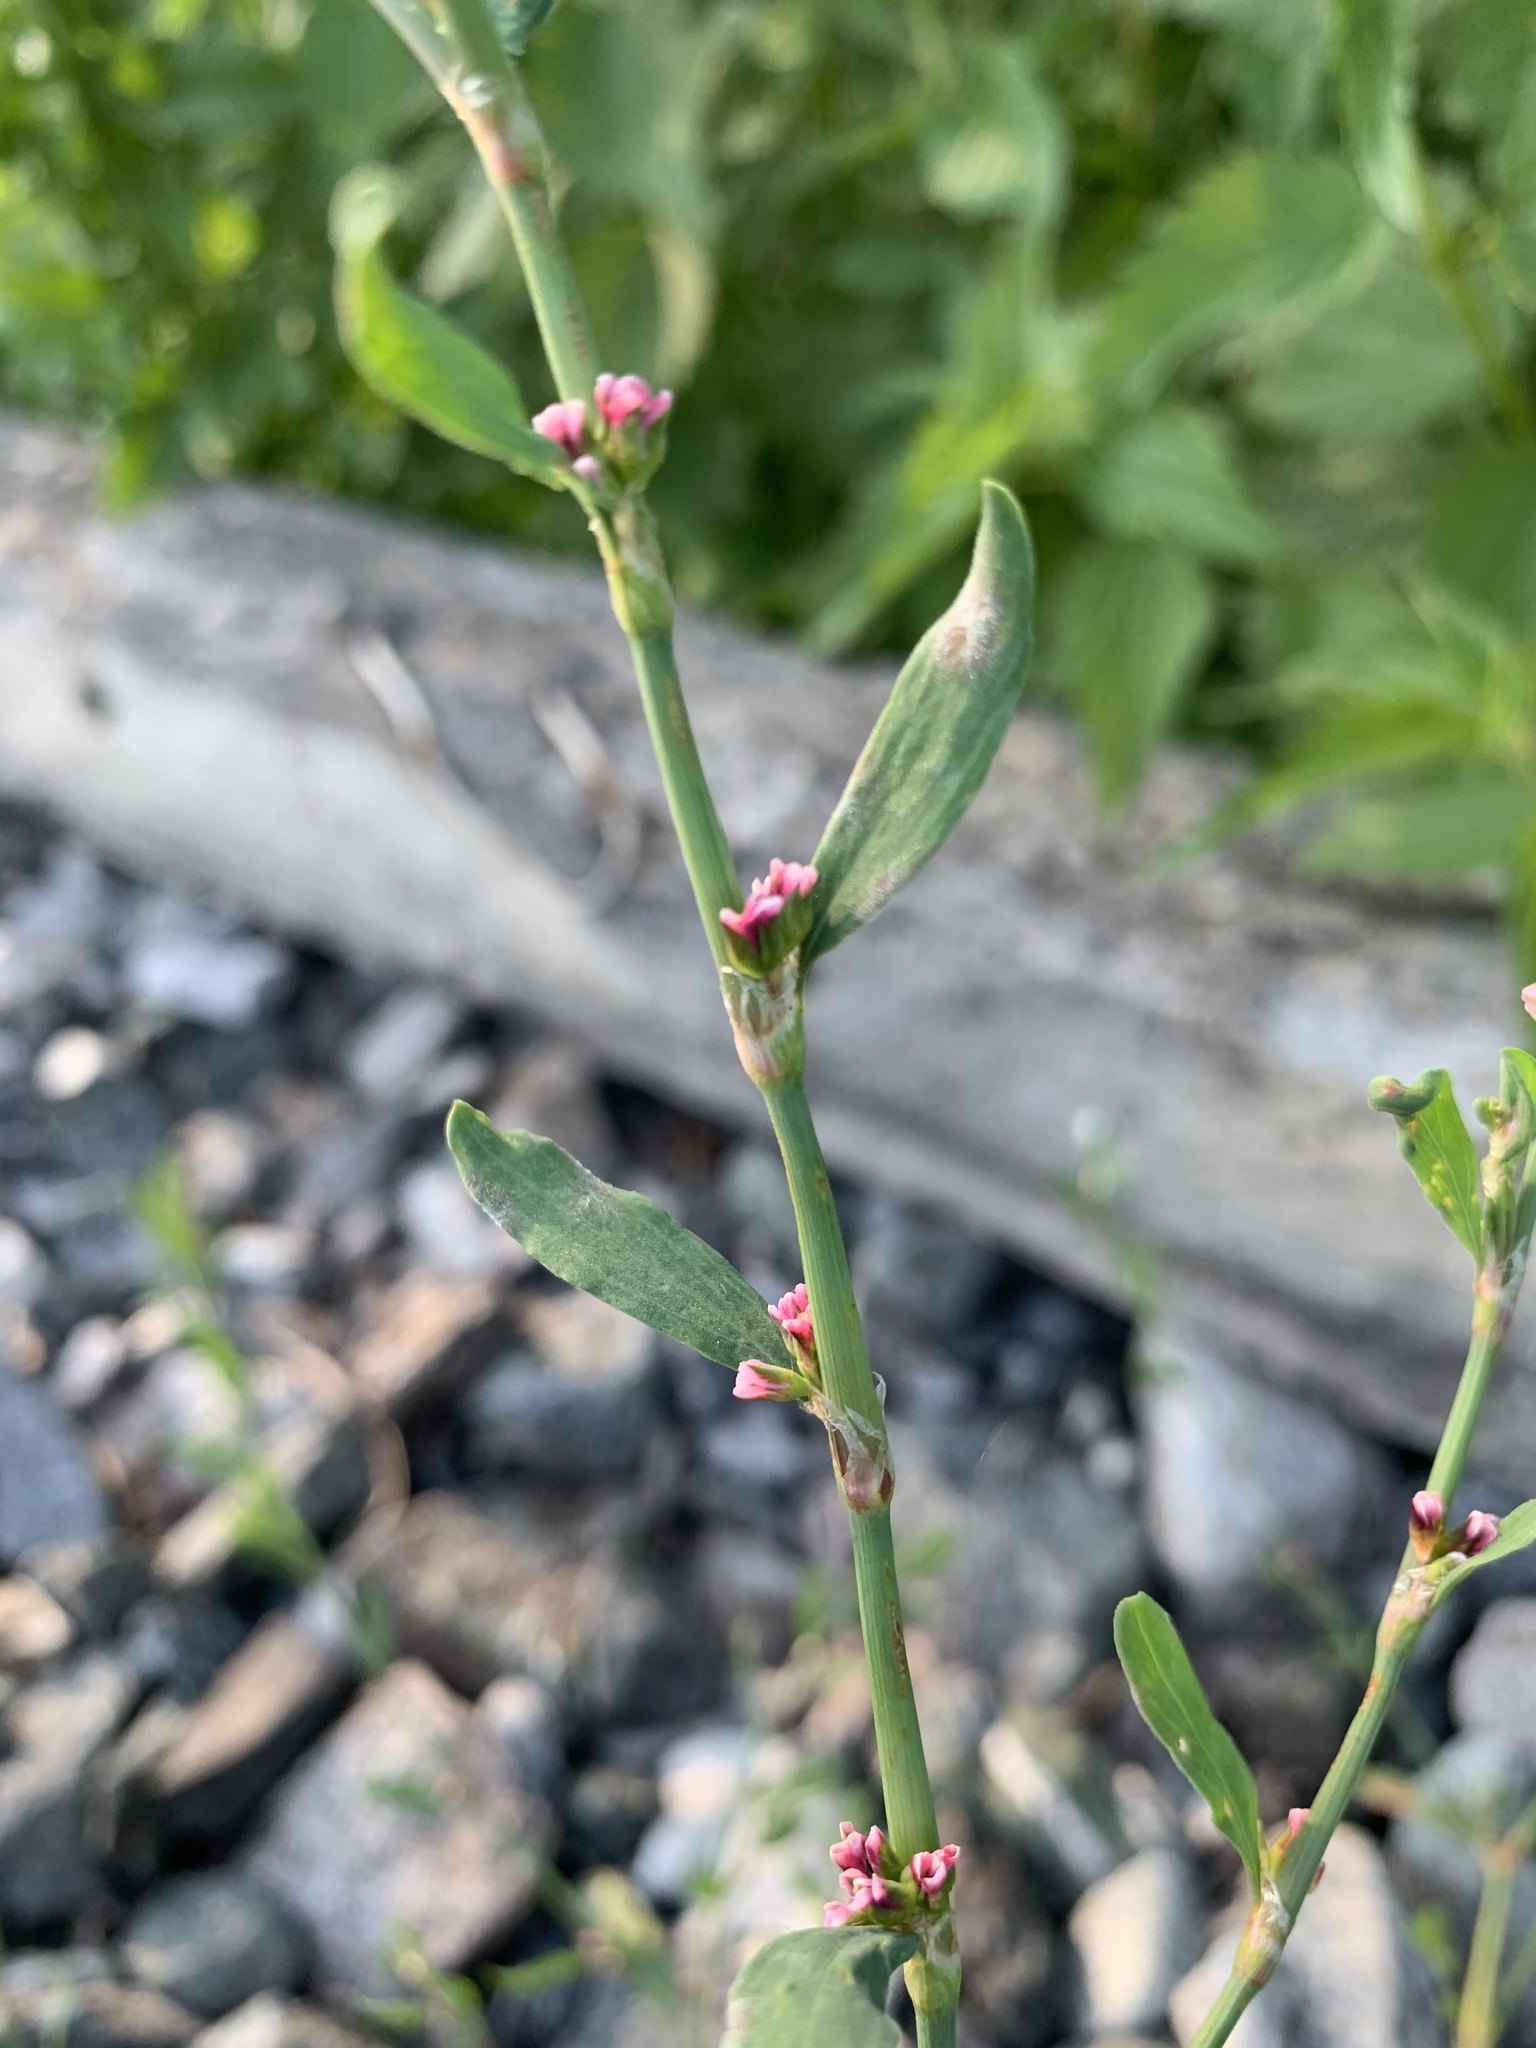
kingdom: Plantae
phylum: Tracheophyta
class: Magnoliopsida
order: Caryophyllales
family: Polygonaceae
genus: Polygonum
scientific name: Polygonum arenastrum
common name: Equal-leaved knotgrass
